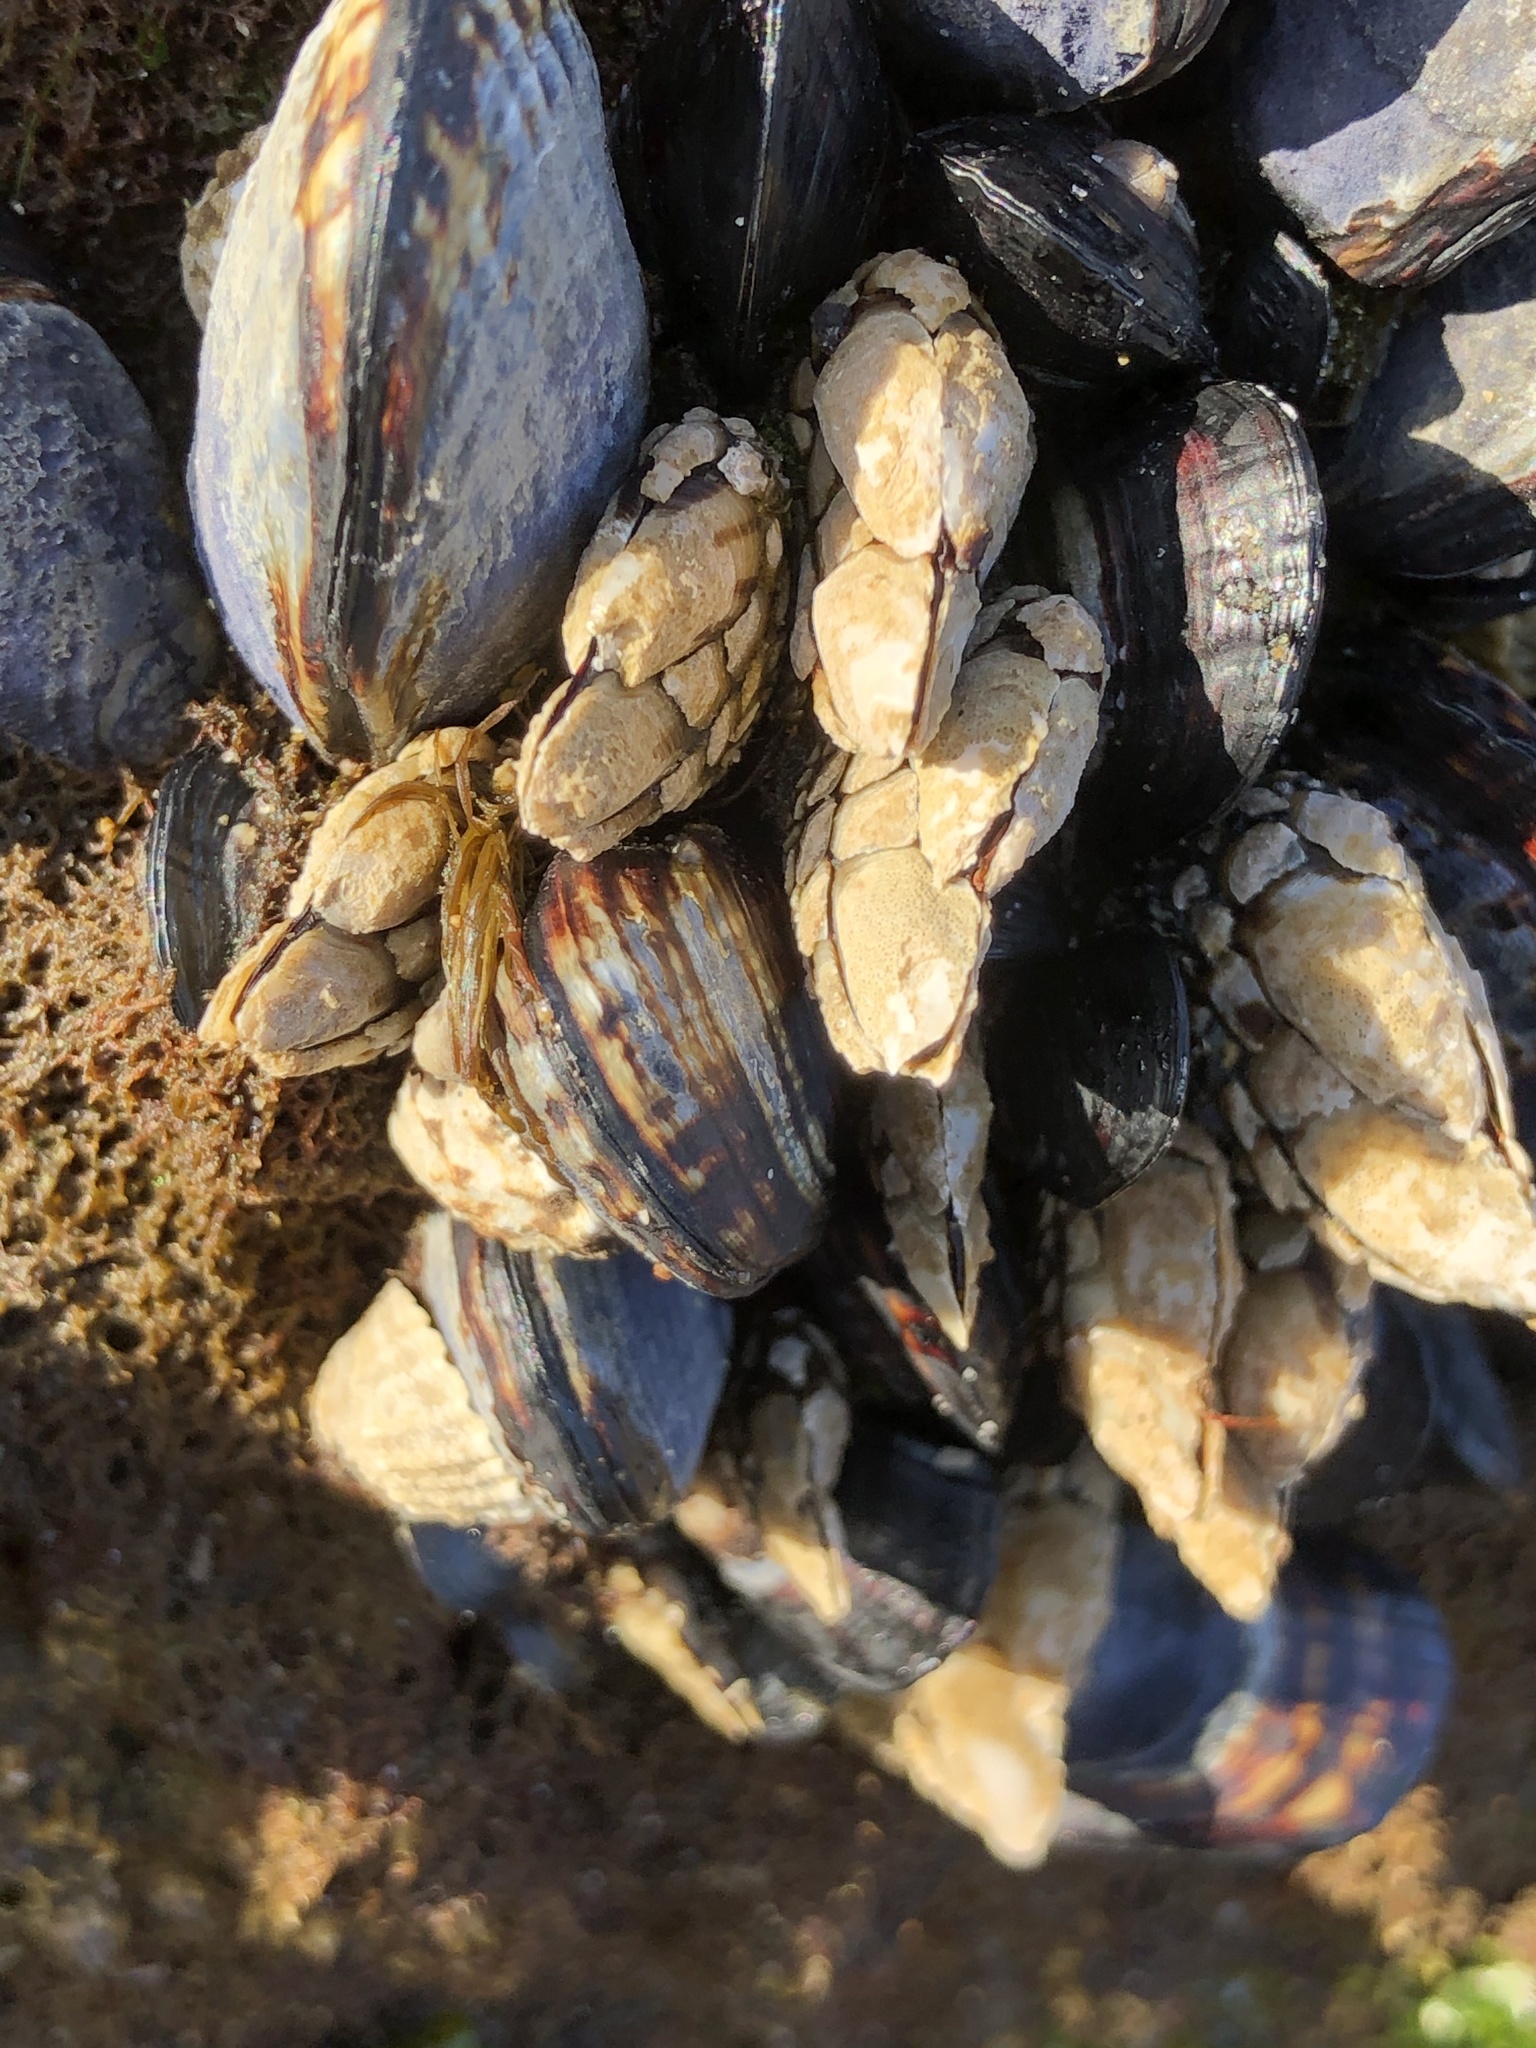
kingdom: Animalia
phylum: Arthropoda
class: Maxillopoda
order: Pedunculata
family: Pollicipedidae
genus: Pollicipes
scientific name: Pollicipes polymerus
